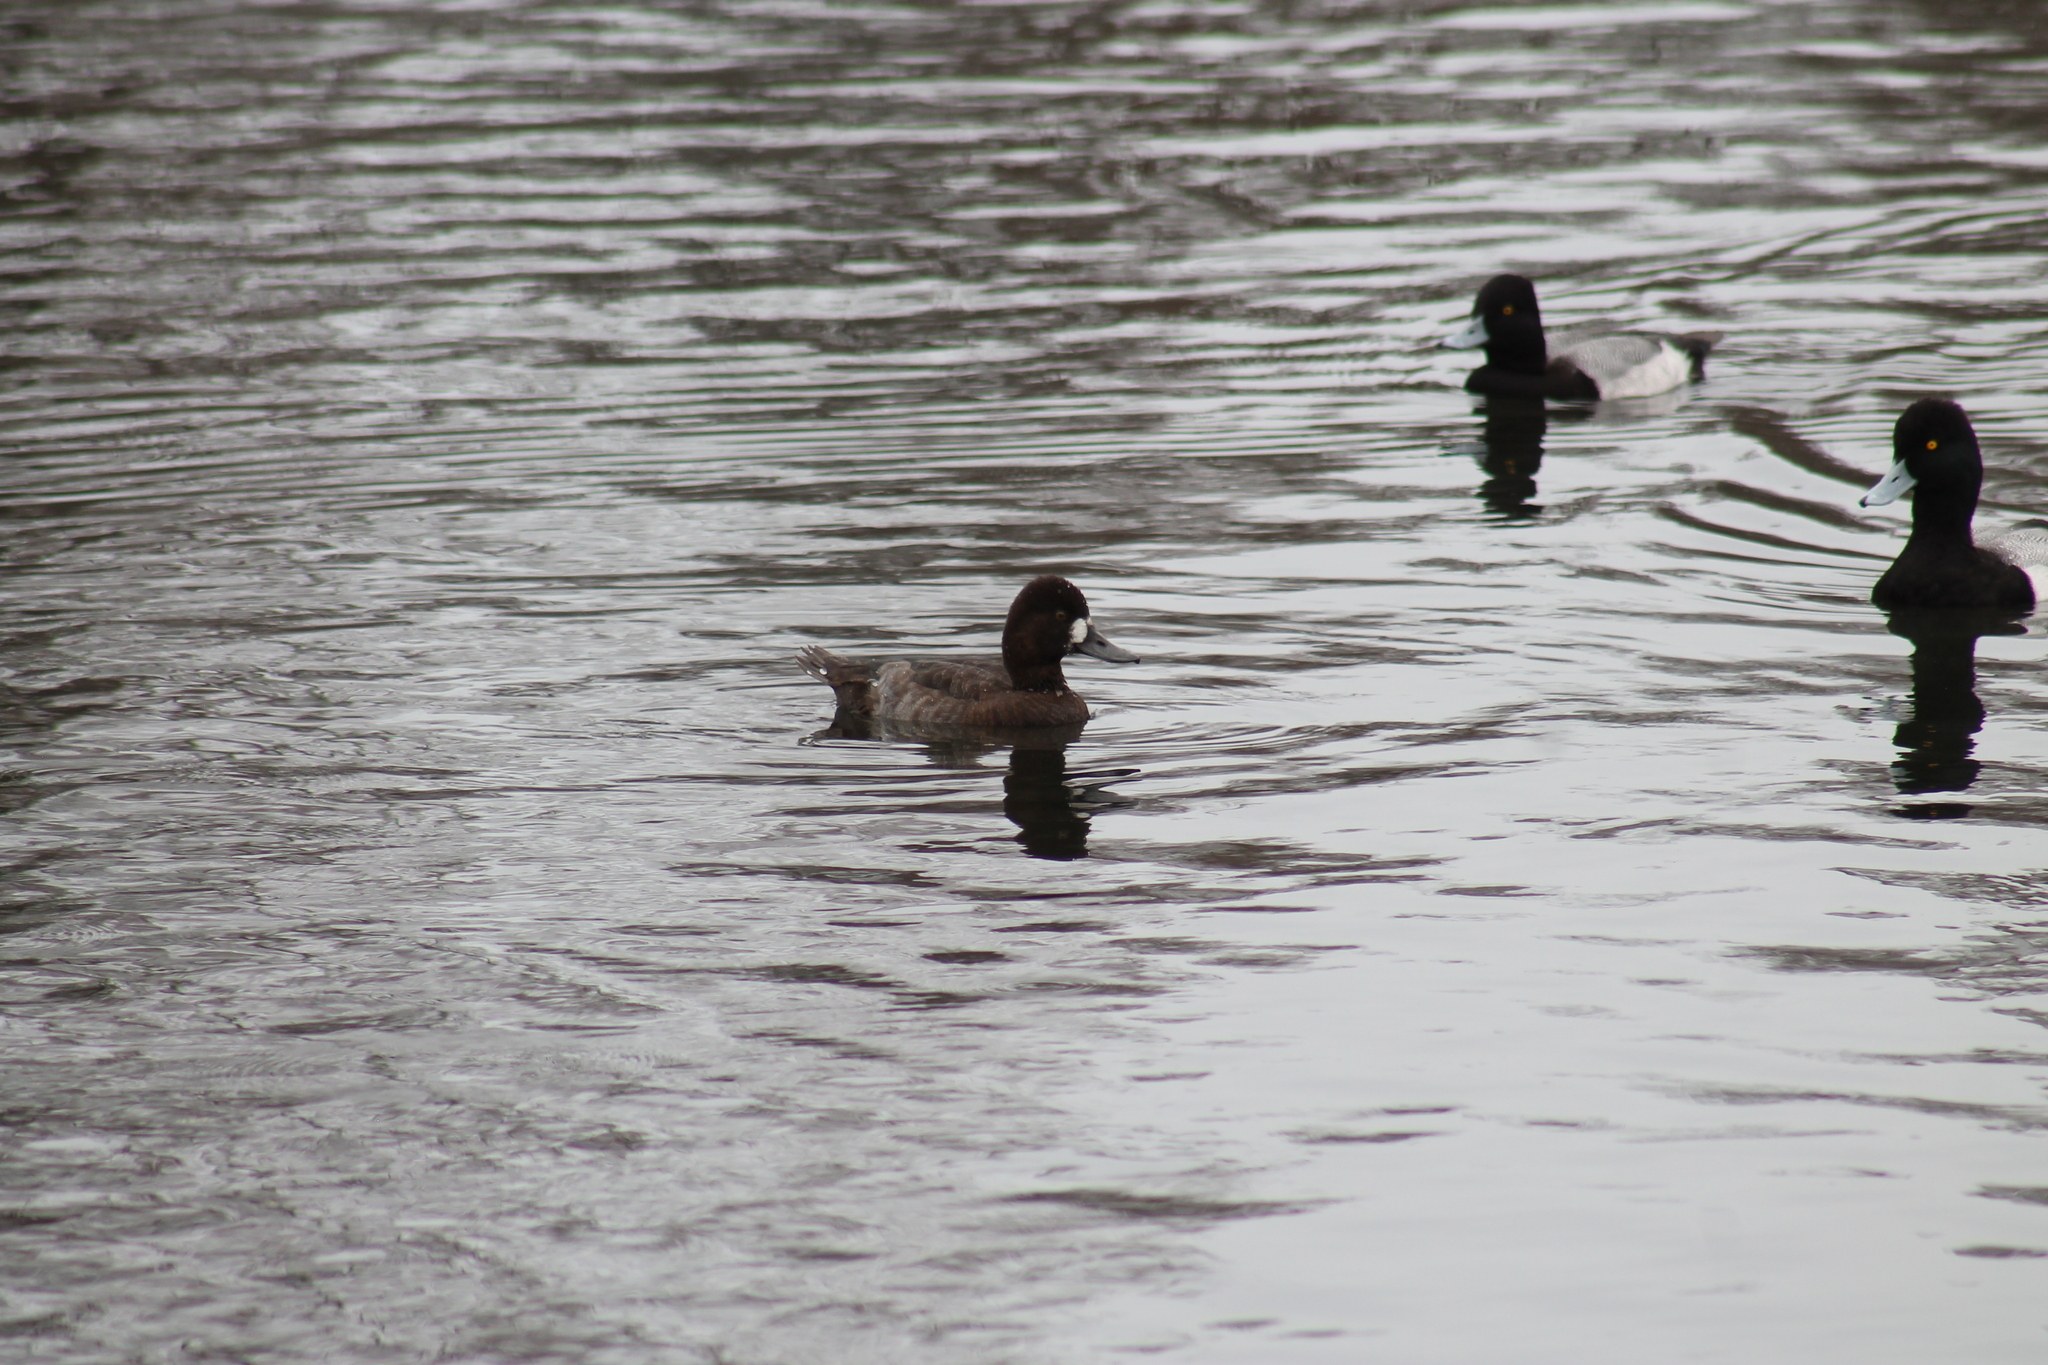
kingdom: Animalia
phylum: Chordata
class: Aves
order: Anseriformes
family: Anatidae
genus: Aythya
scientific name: Aythya affinis
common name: Lesser scaup
